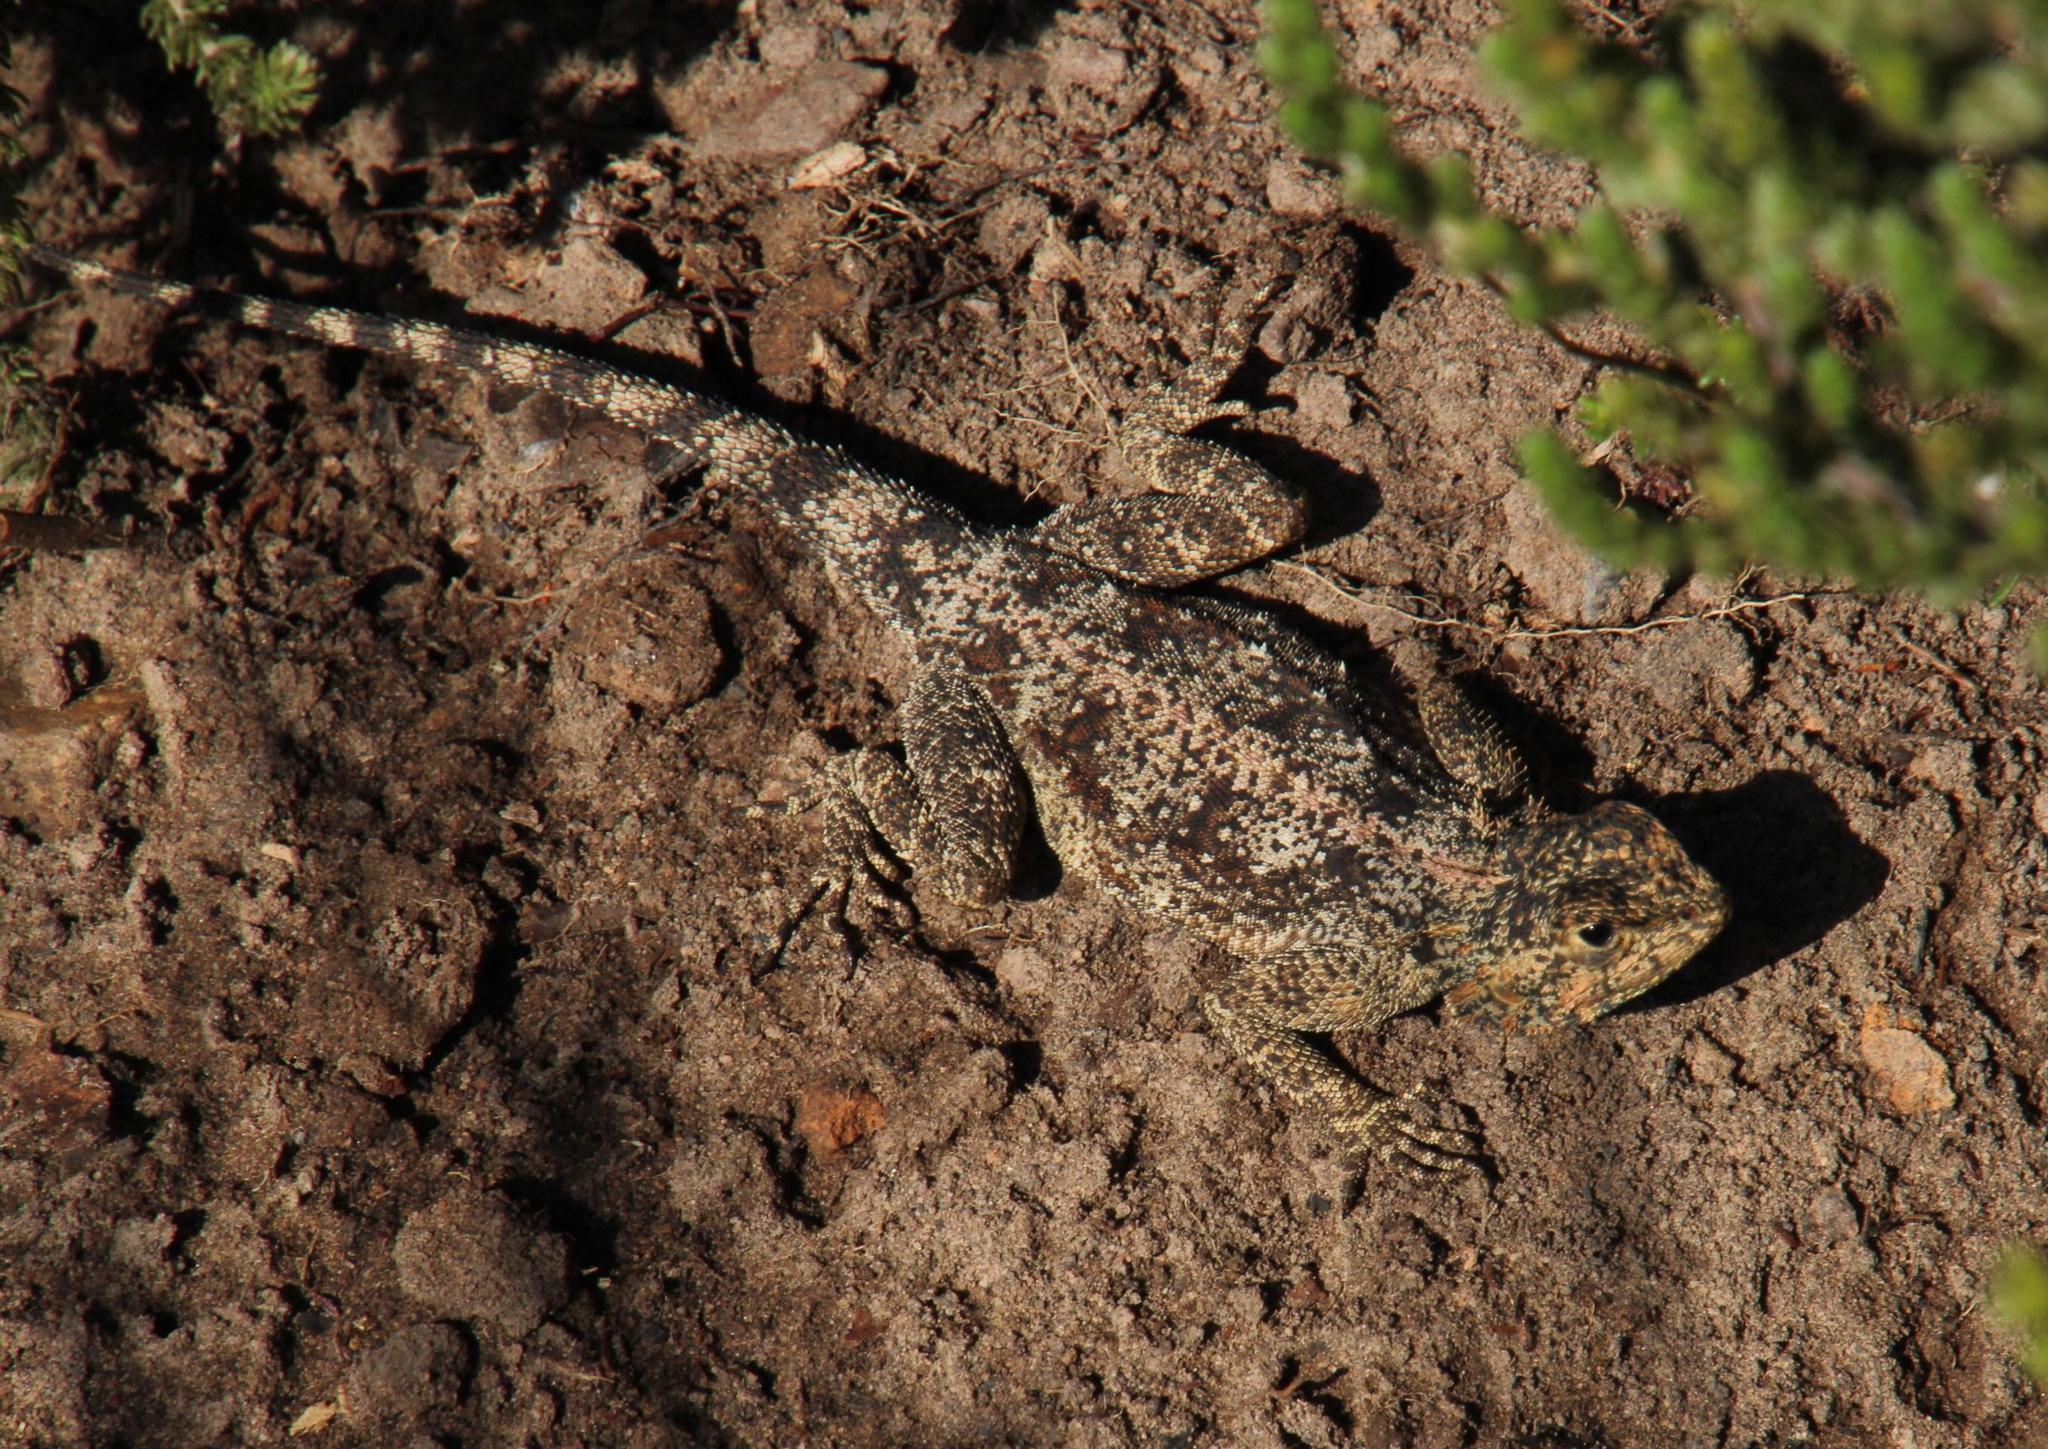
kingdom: Animalia
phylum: Chordata
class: Squamata
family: Agamidae
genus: Agama
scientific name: Agama atra
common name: Southern african rock agama
